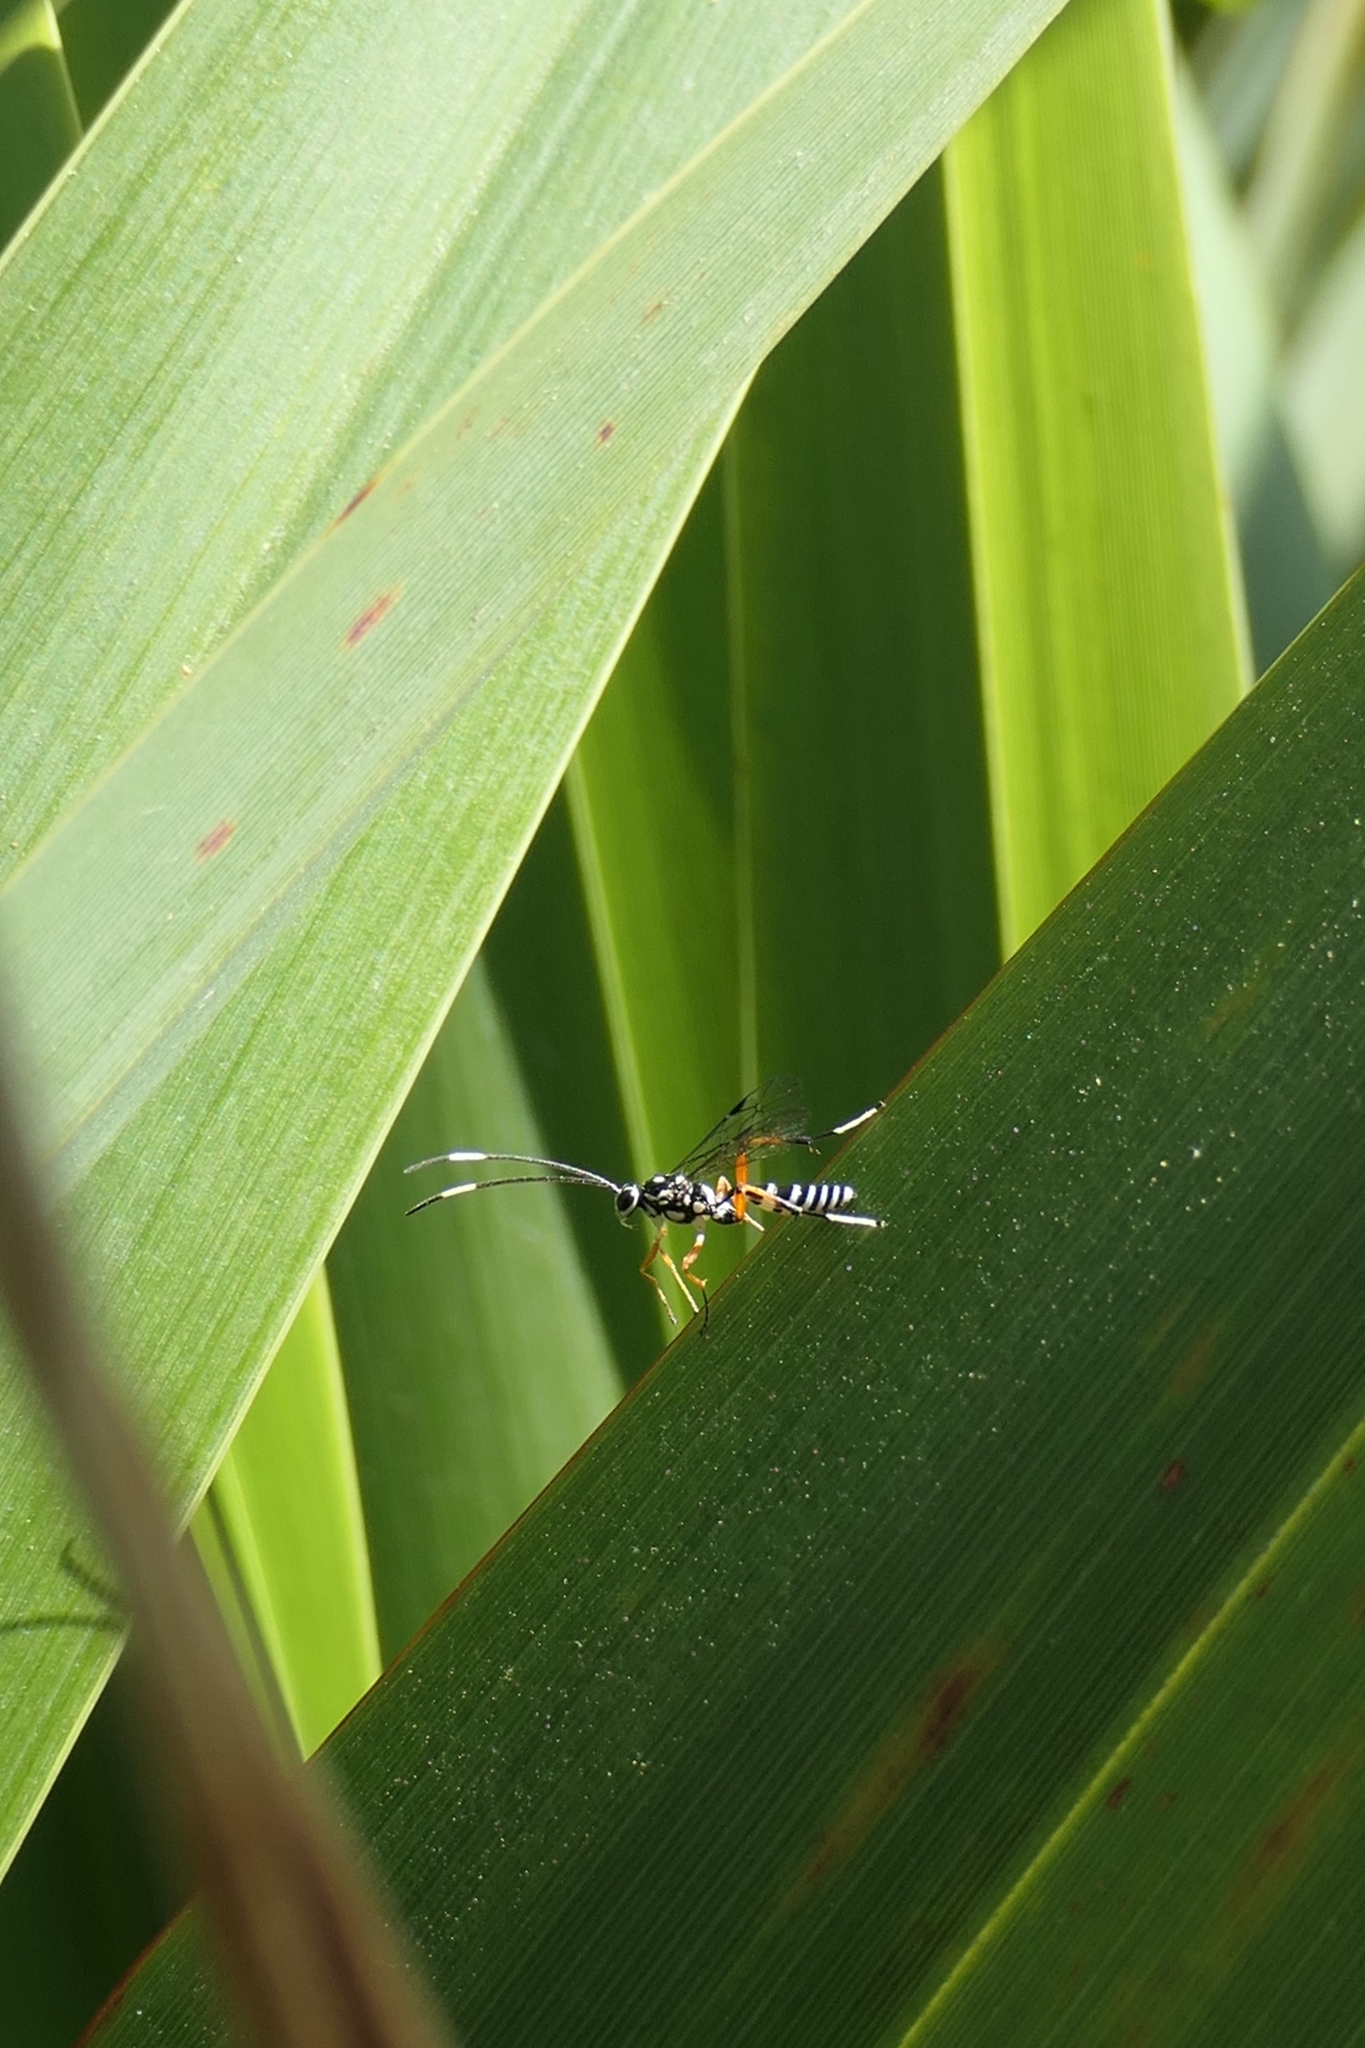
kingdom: Animalia
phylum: Arthropoda
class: Insecta
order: Hymenoptera
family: Ichneumonidae
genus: Glabridorsum
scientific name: Glabridorsum stokesii
